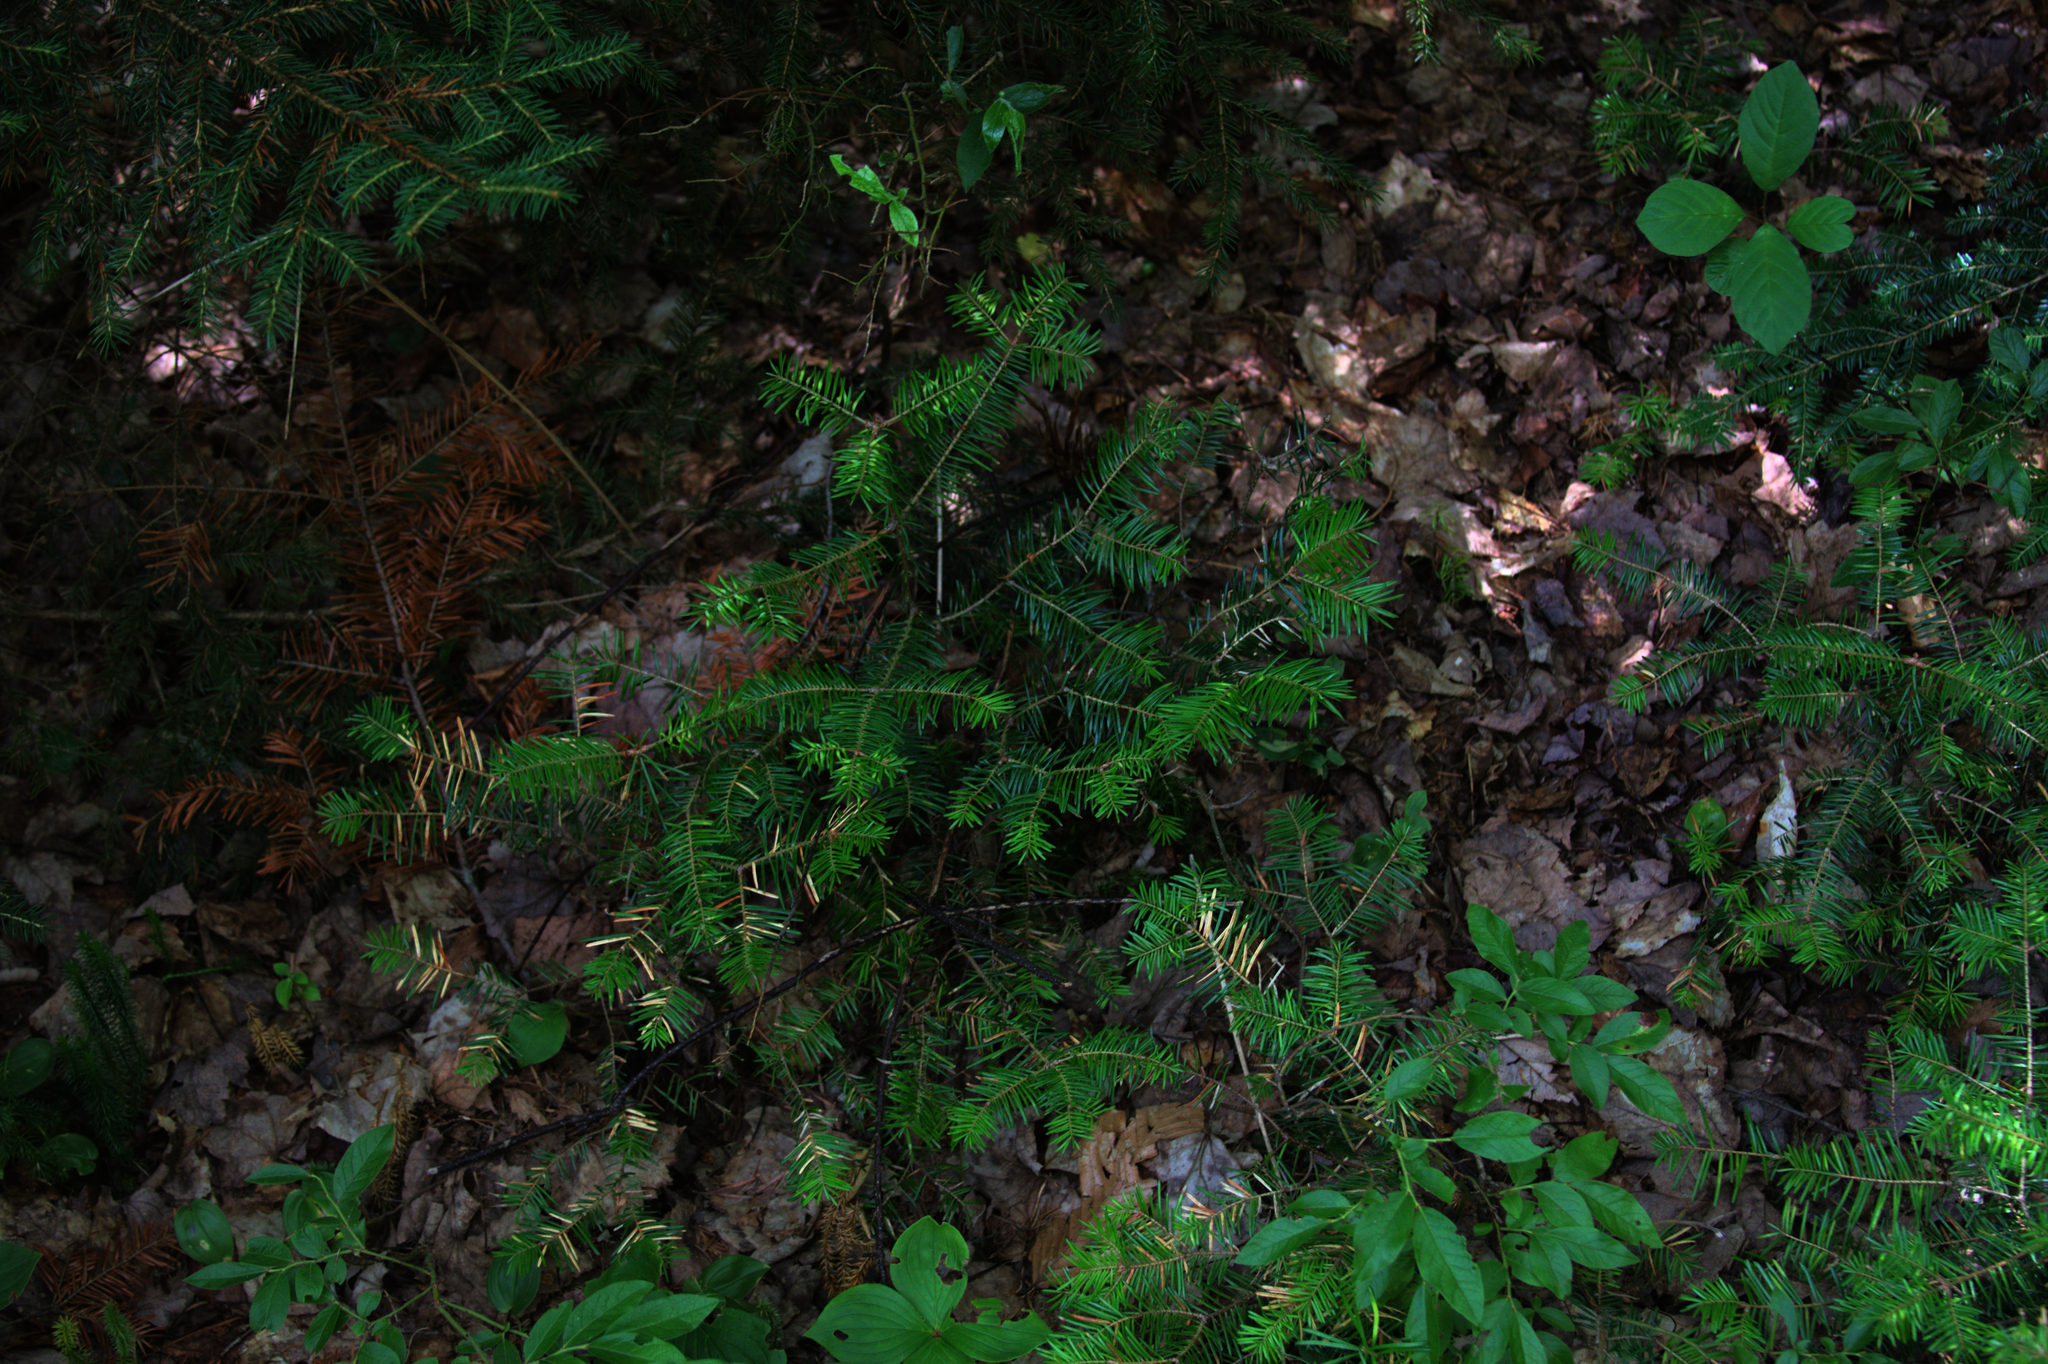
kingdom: Plantae
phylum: Tracheophyta
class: Pinopsida
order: Pinales
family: Pinaceae
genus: Abies
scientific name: Abies balsamea
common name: Balsam fir
